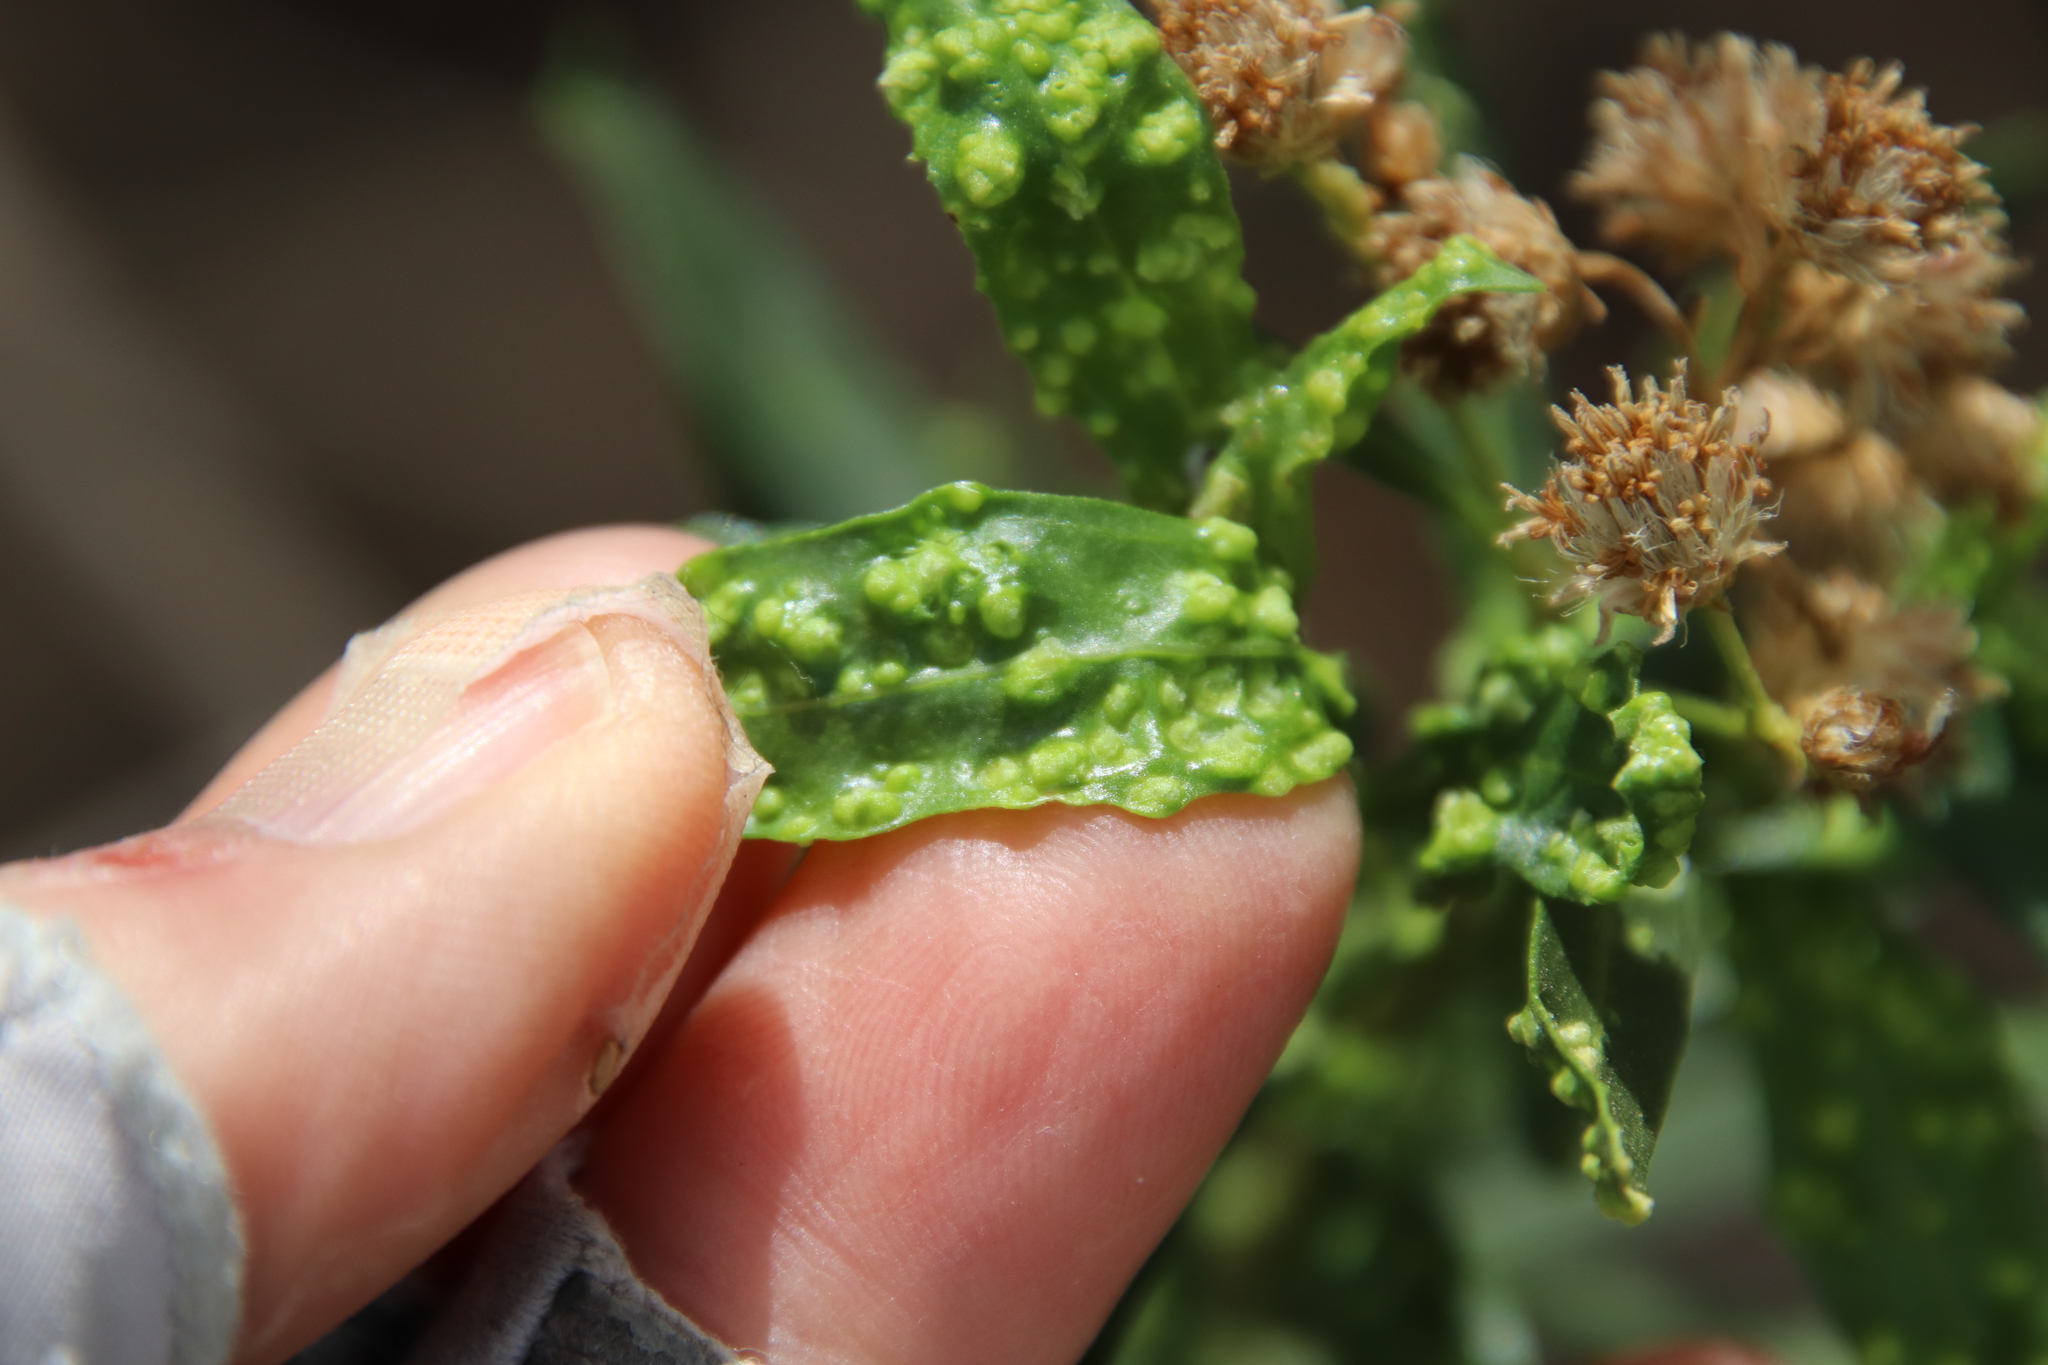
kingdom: Animalia
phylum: Arthropoda
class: Arachnida
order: Trombidiformes
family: Eriophyidae
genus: Aceria
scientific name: Aceria
